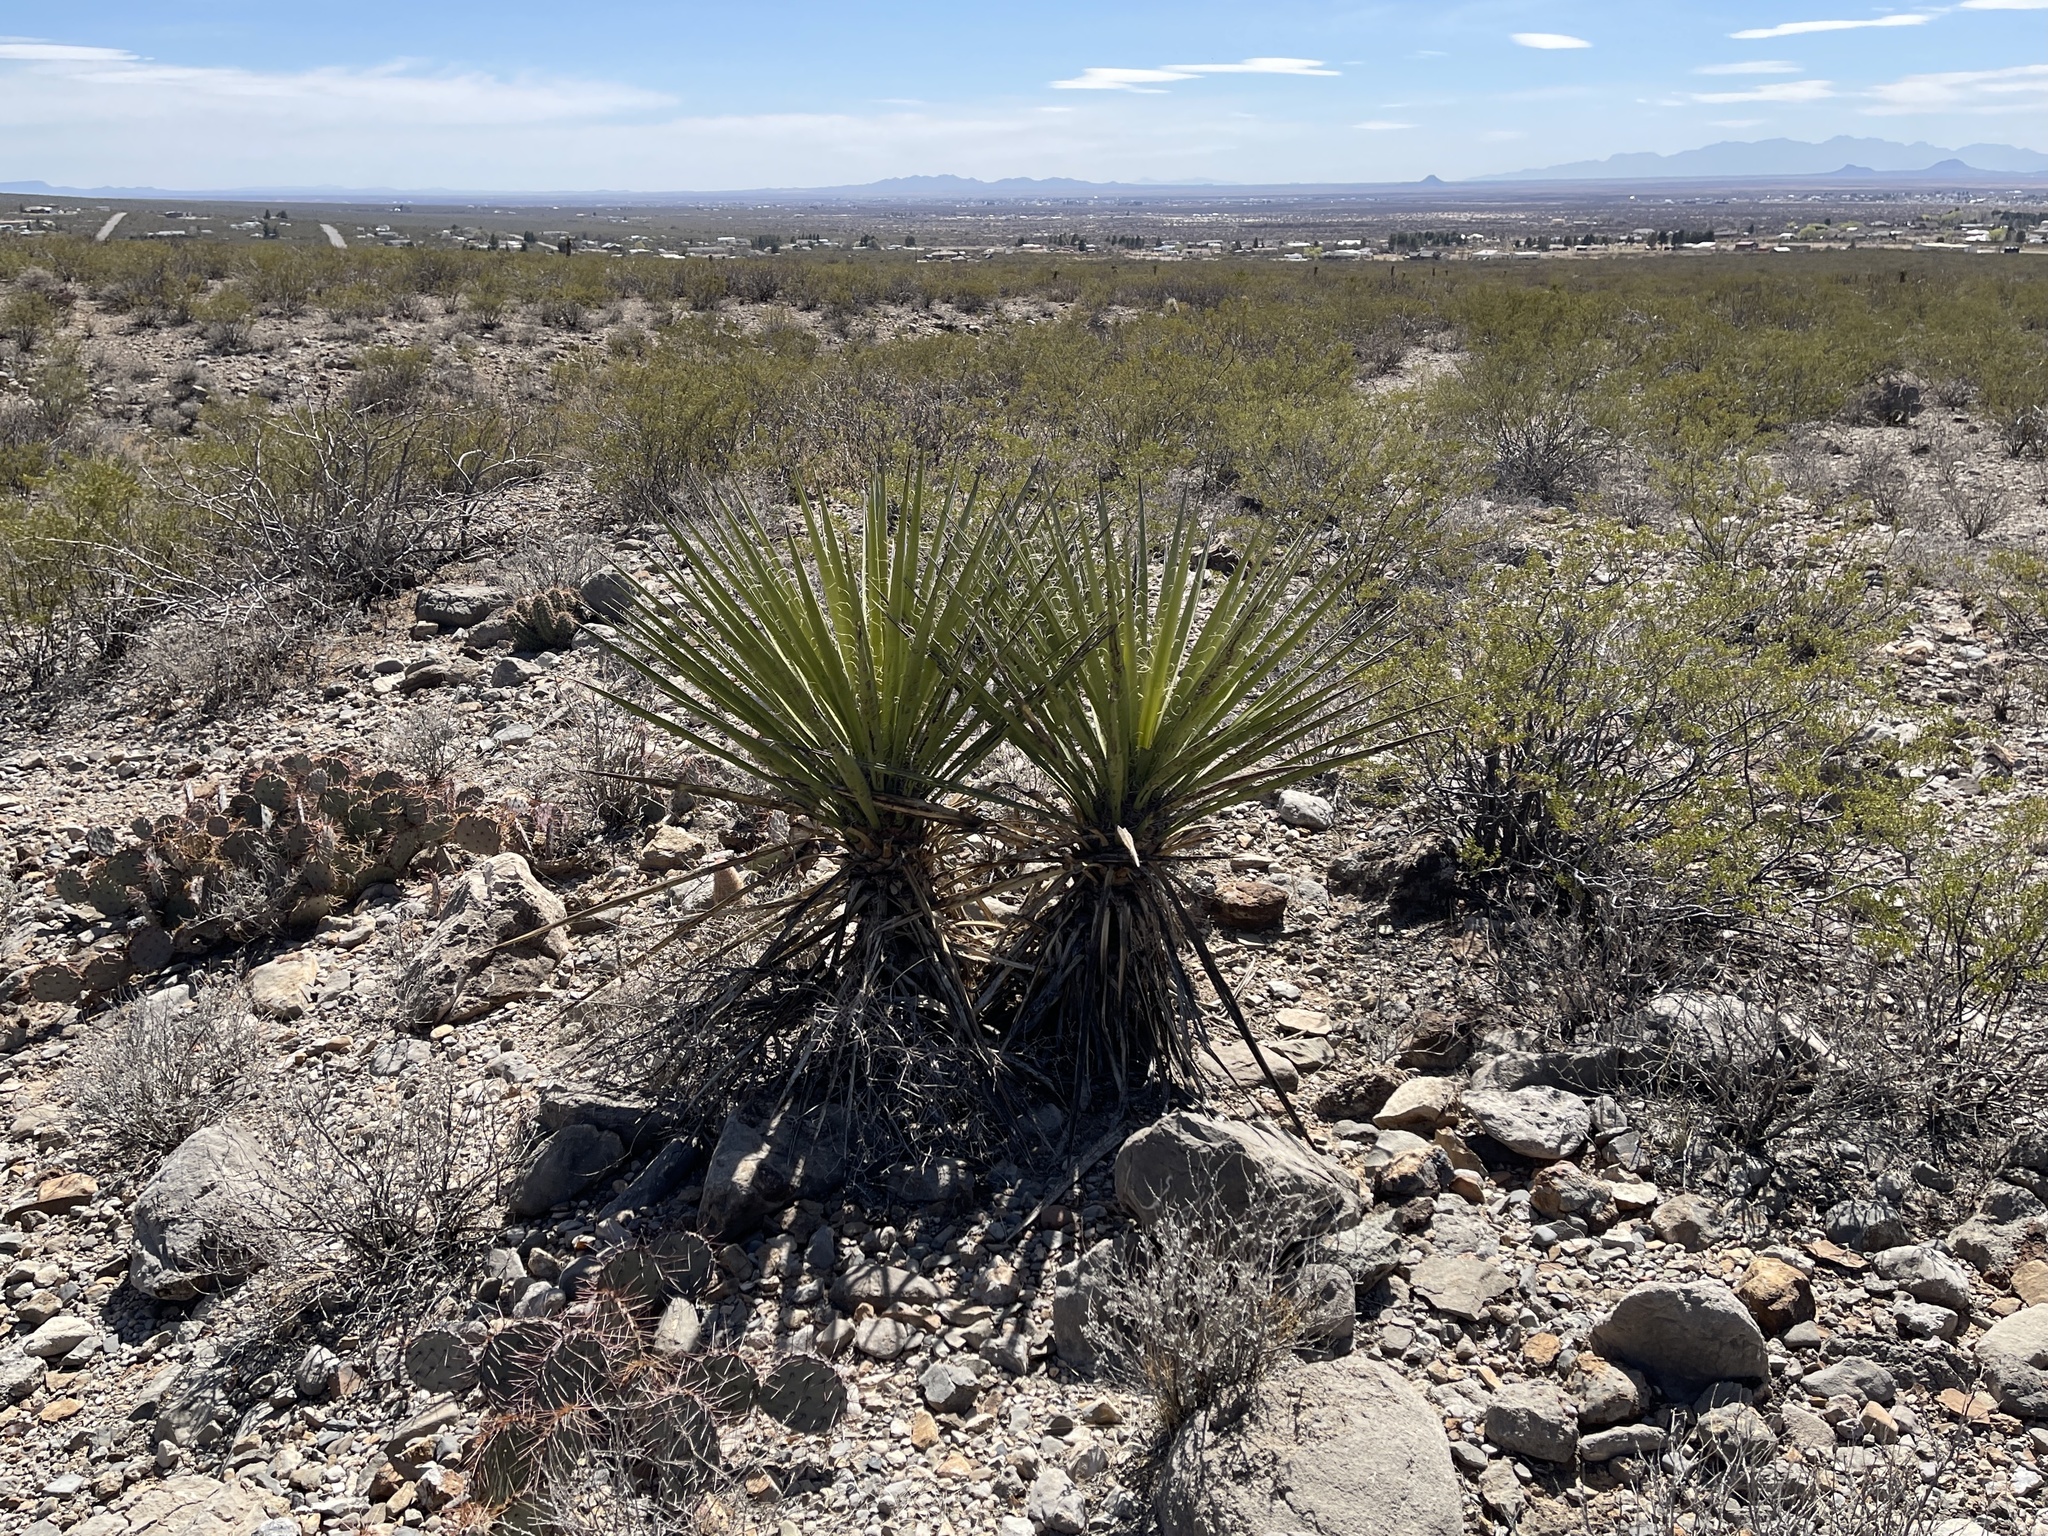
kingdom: Plantae
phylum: Tracheophyta
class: Liliopsida
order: Asparagales
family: Asparagaceae
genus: Yucca
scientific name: Yucca treculiana
